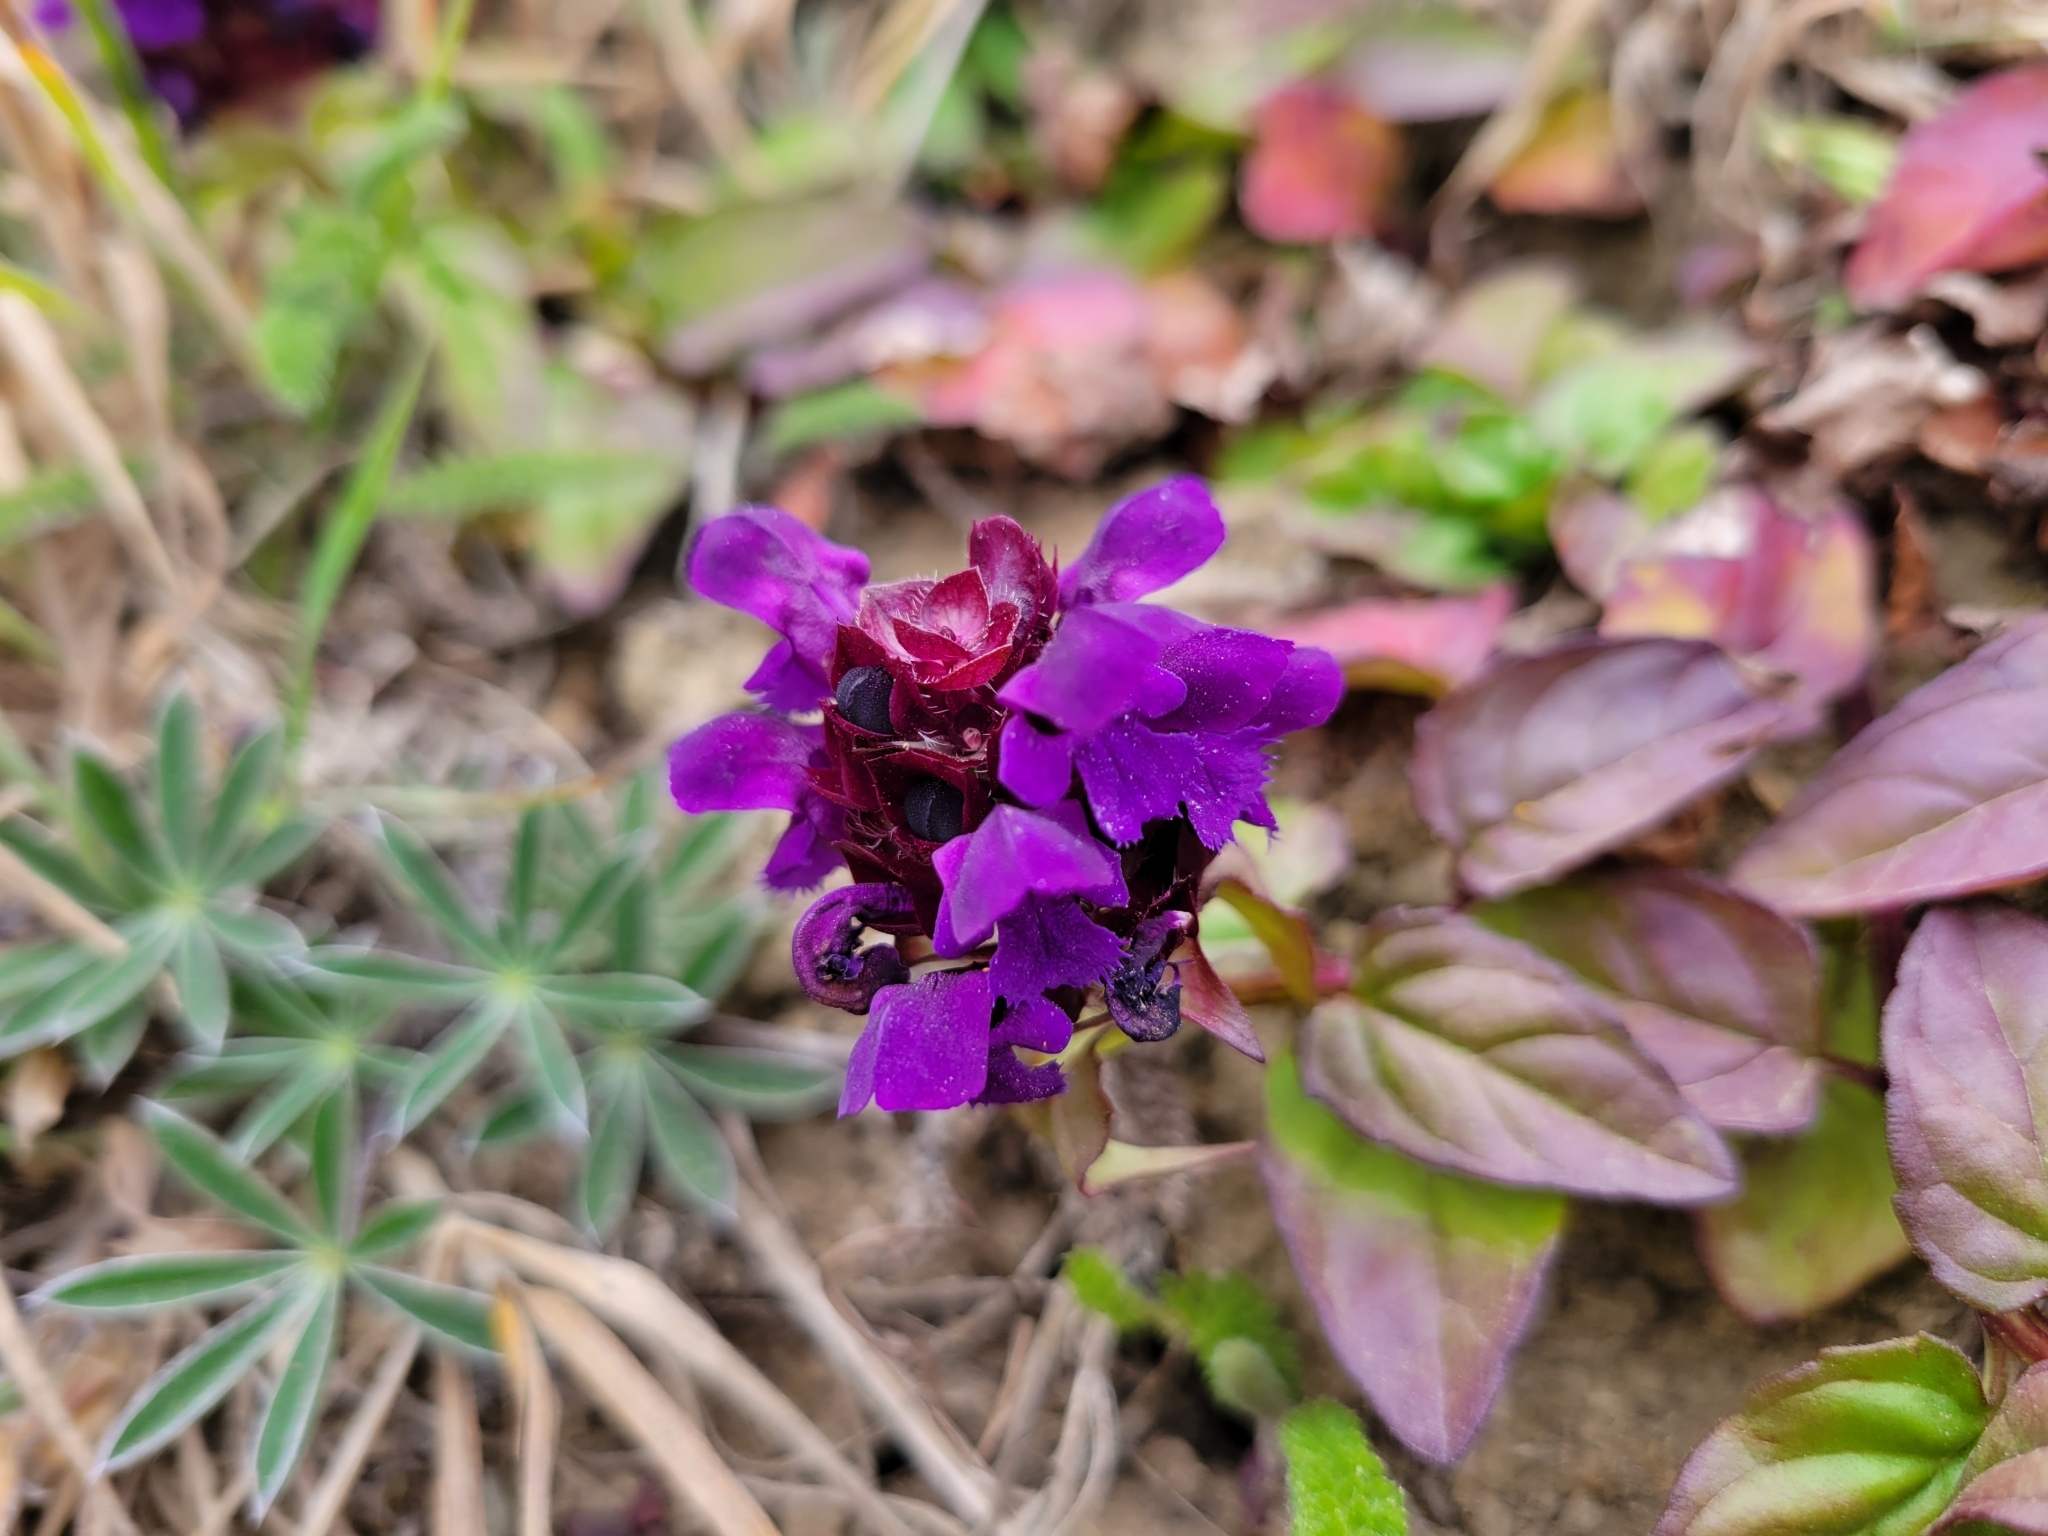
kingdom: Plantae
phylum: Tracheophyta
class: Magnoliopsida
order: Lamiales
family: Lamiaceae
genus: Prunella
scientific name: Prunella vulgaris
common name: Heal-all
